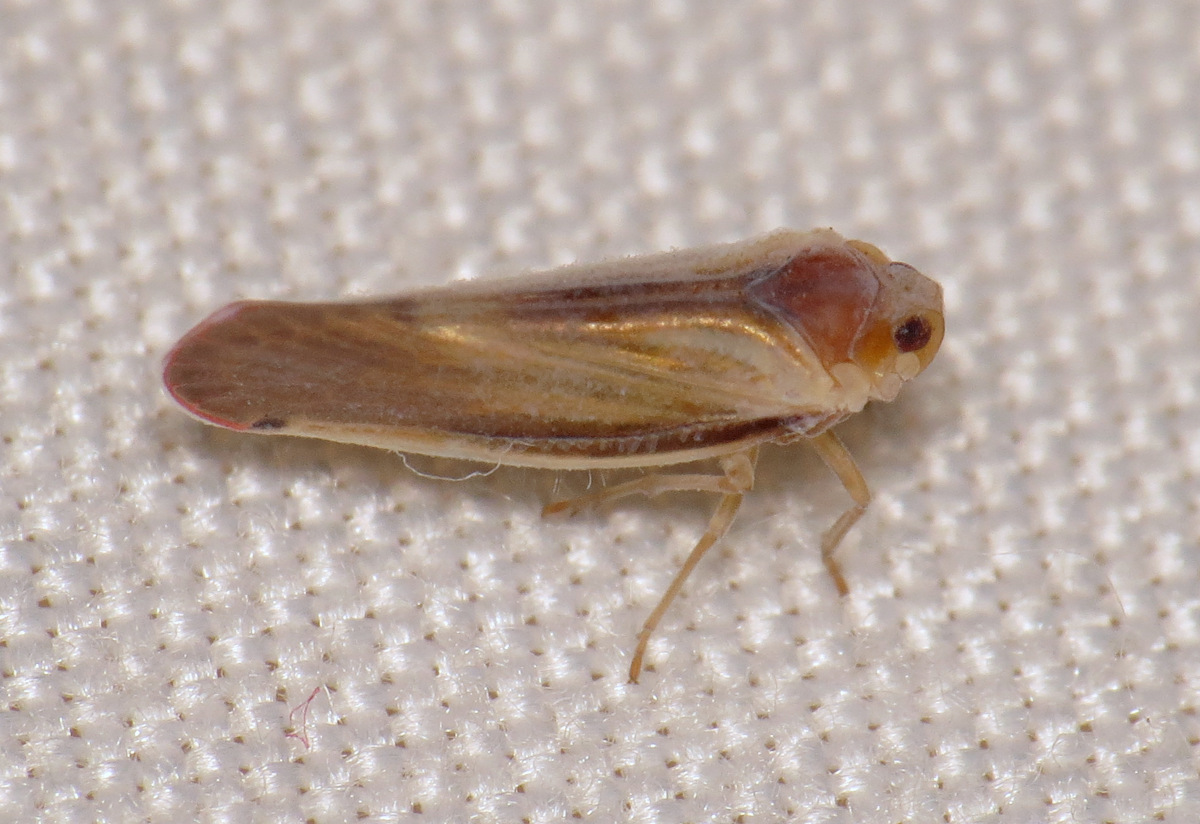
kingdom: Animalia
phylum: Arthropoda
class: Insecta
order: Hemiptera
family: Derbidae
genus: Omolicna
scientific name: Omolicna uhleri
